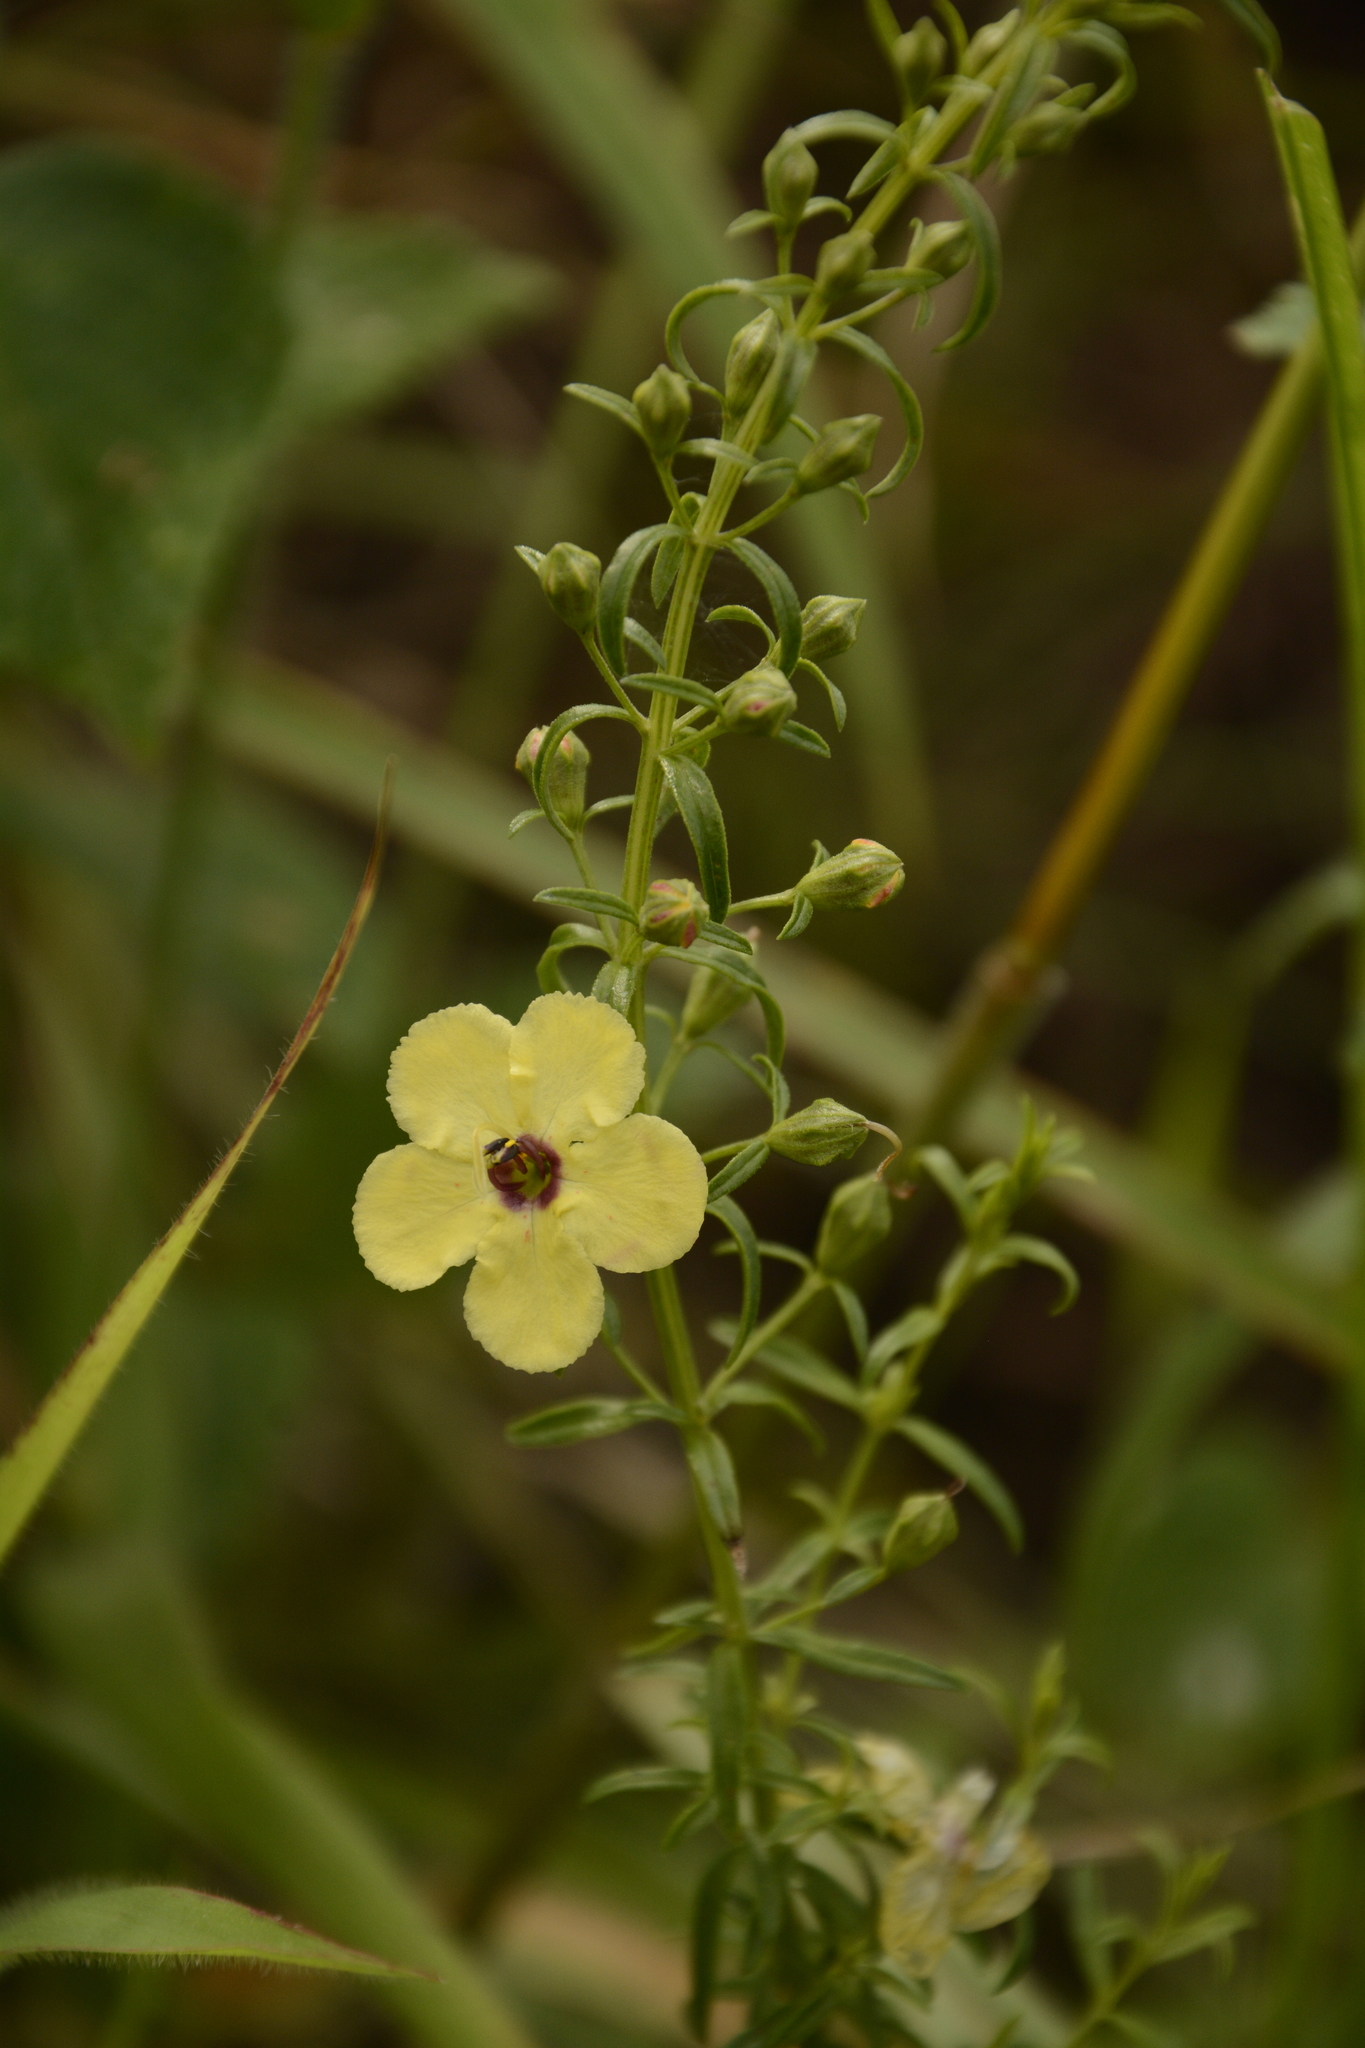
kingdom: Plantae
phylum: Tracheophyta
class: Magnoliopsida
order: Lamiales
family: Orobanchaceae
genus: Sopubia
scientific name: Sopubia trifida
